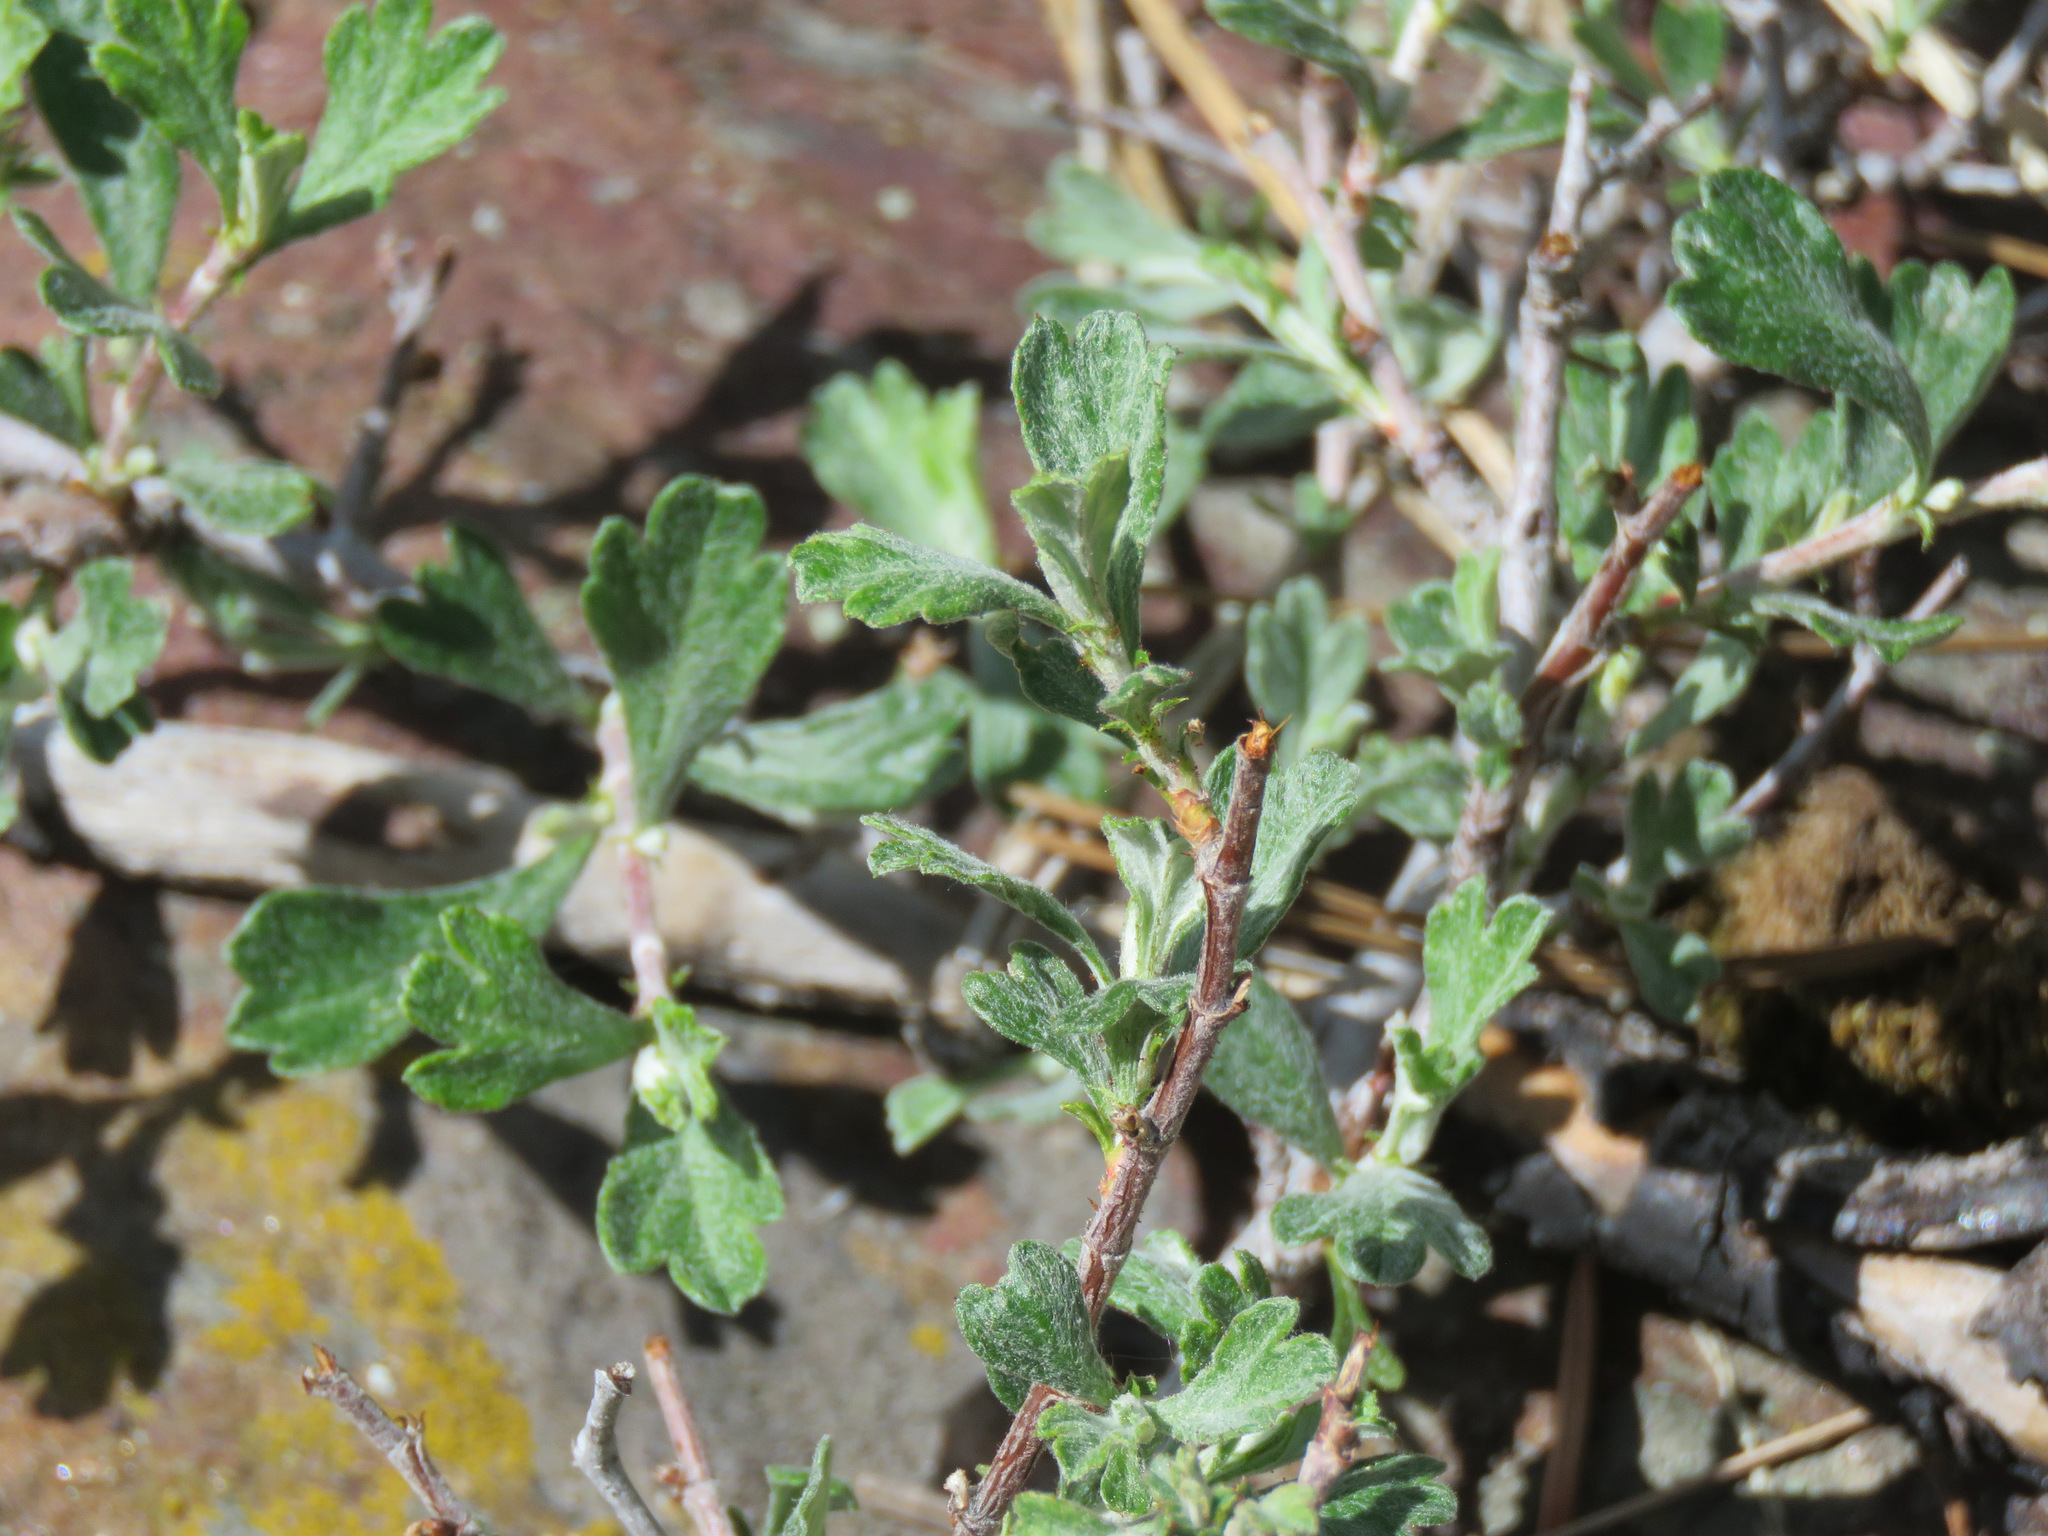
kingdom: Plantae
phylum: Tracheophyta
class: Magnoliopsida
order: Rosales
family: Rosaceae
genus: Purshia
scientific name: Purshia tridentata
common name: Antelope bitterbrush
